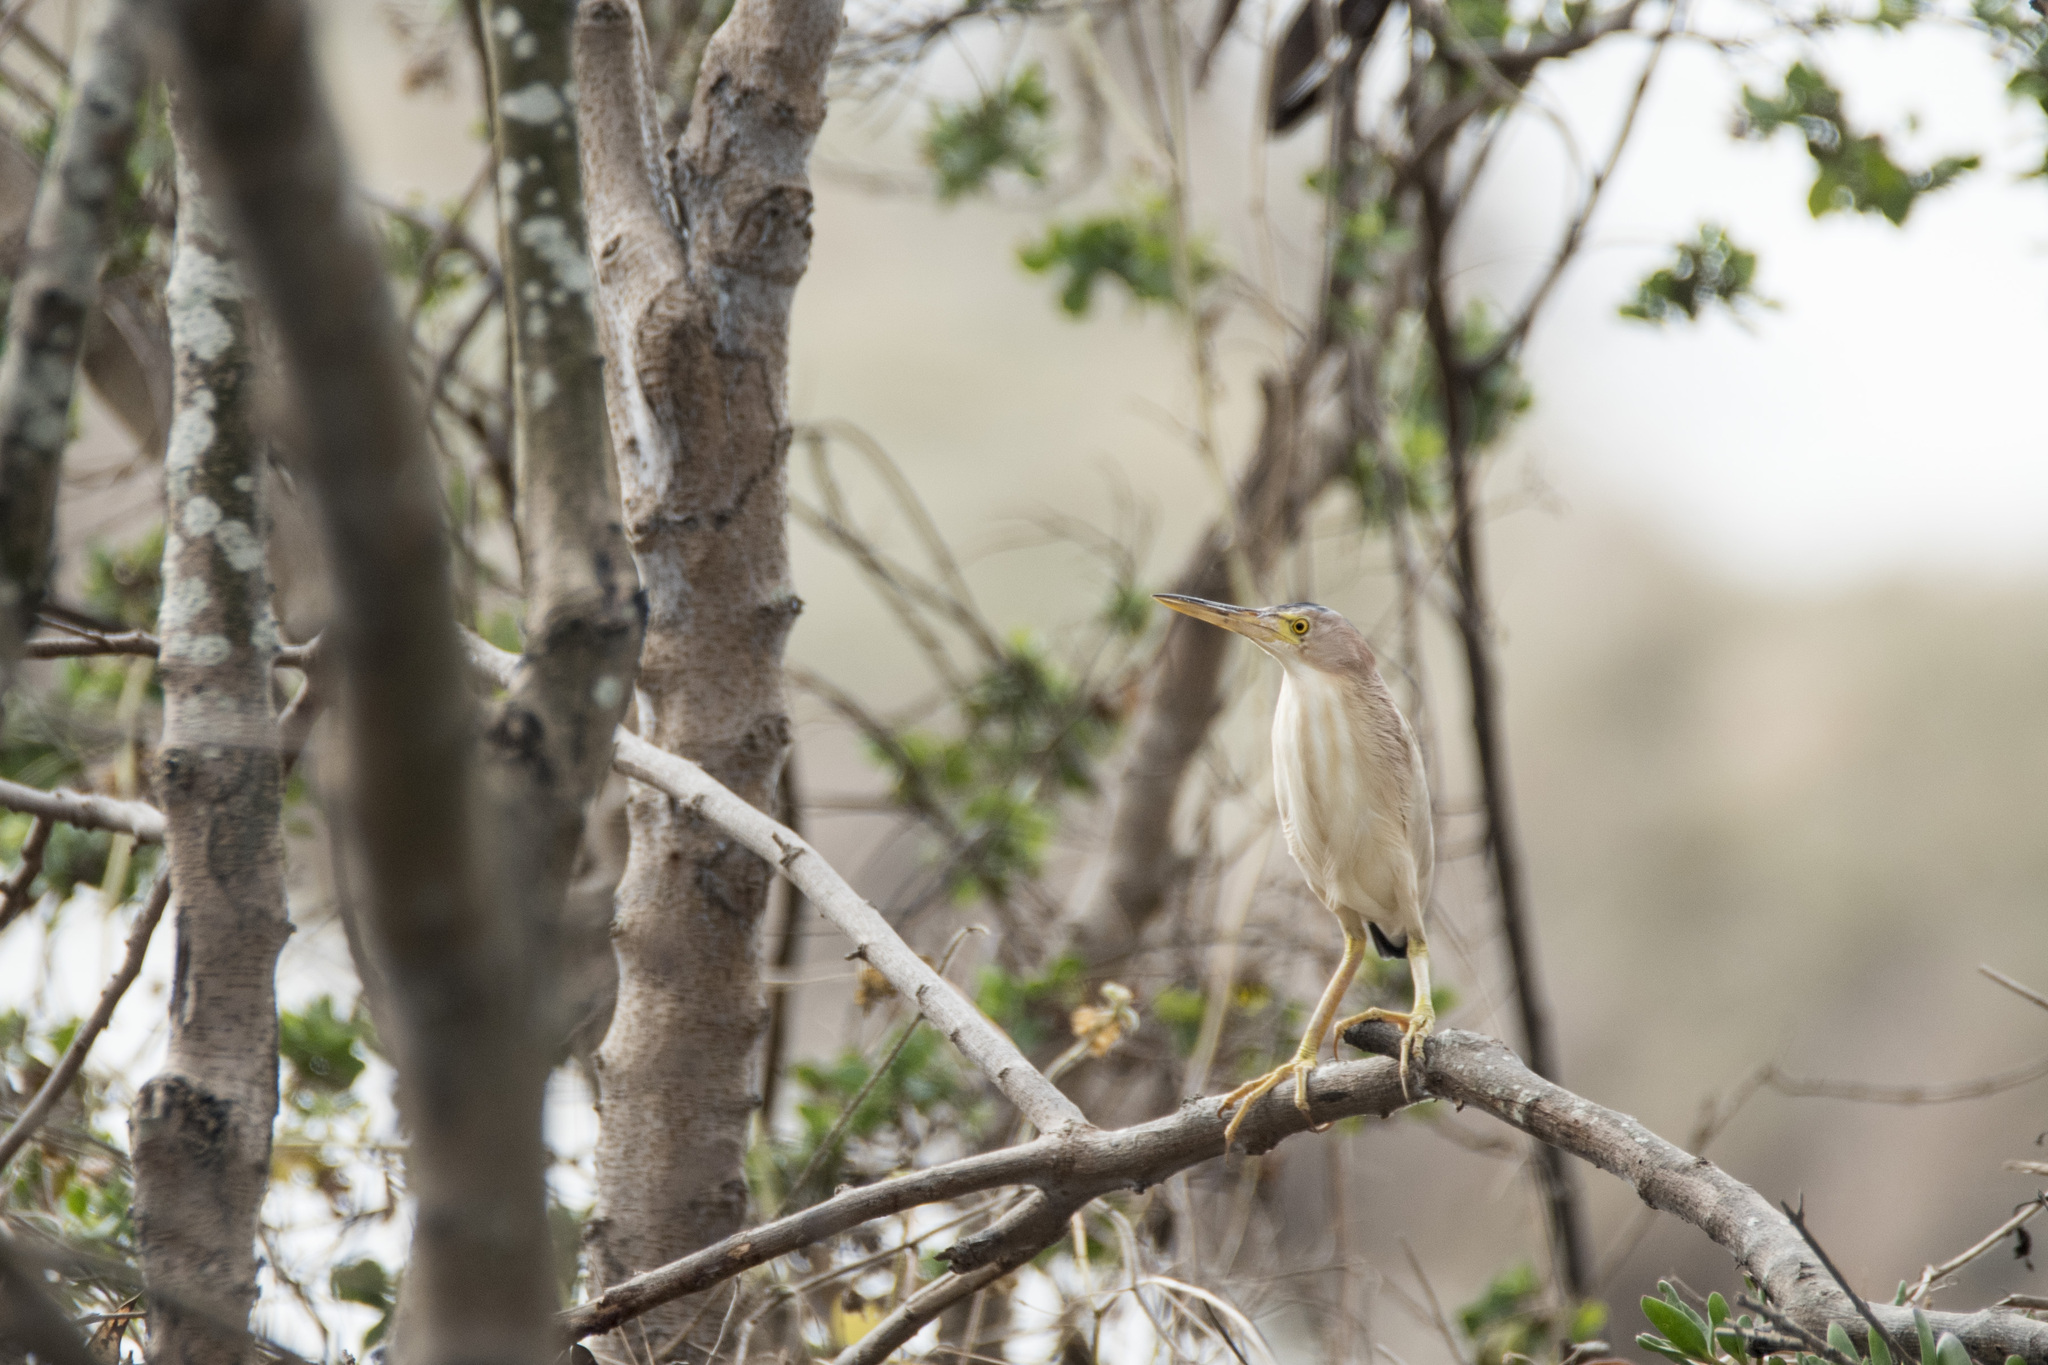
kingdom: Animalia
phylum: Chordata
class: Aves
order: Pelecaniformes
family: Ardeidae
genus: Ixobrychus
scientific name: Ixobrychus sinensis
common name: Yellow bittern
